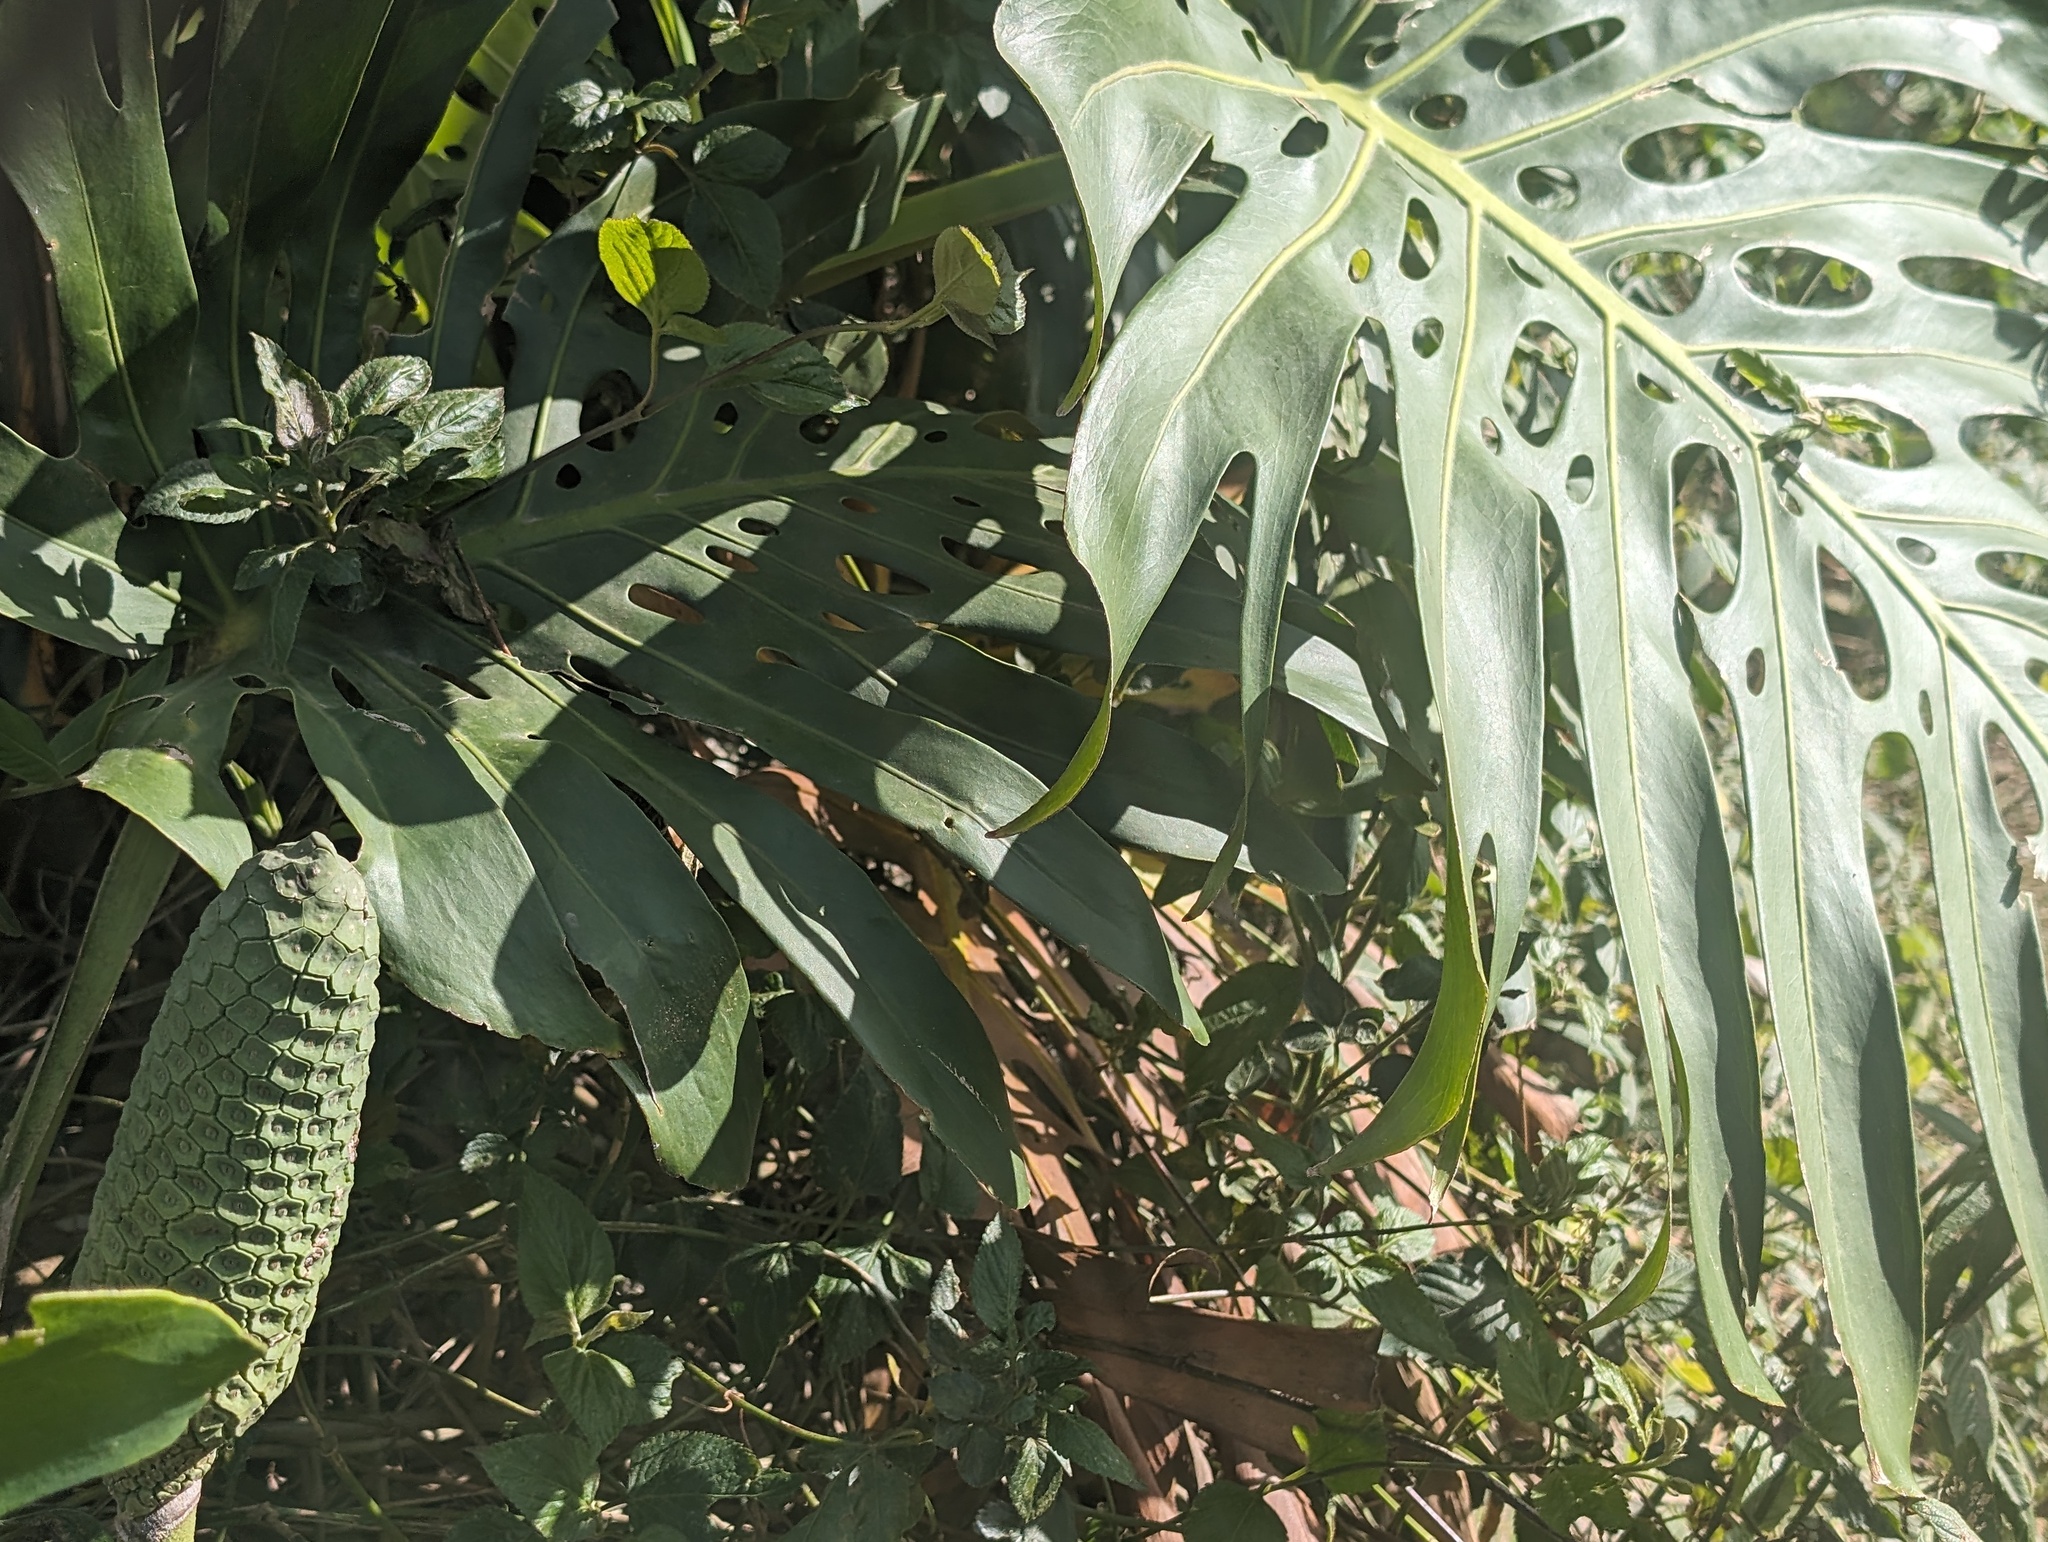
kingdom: Plantae
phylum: Tracheophyta
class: Liliopsida
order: Alismatales
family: Araceae
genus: Monstera
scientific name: Monstera deliciosa
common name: Cut-leaf-philodendron
